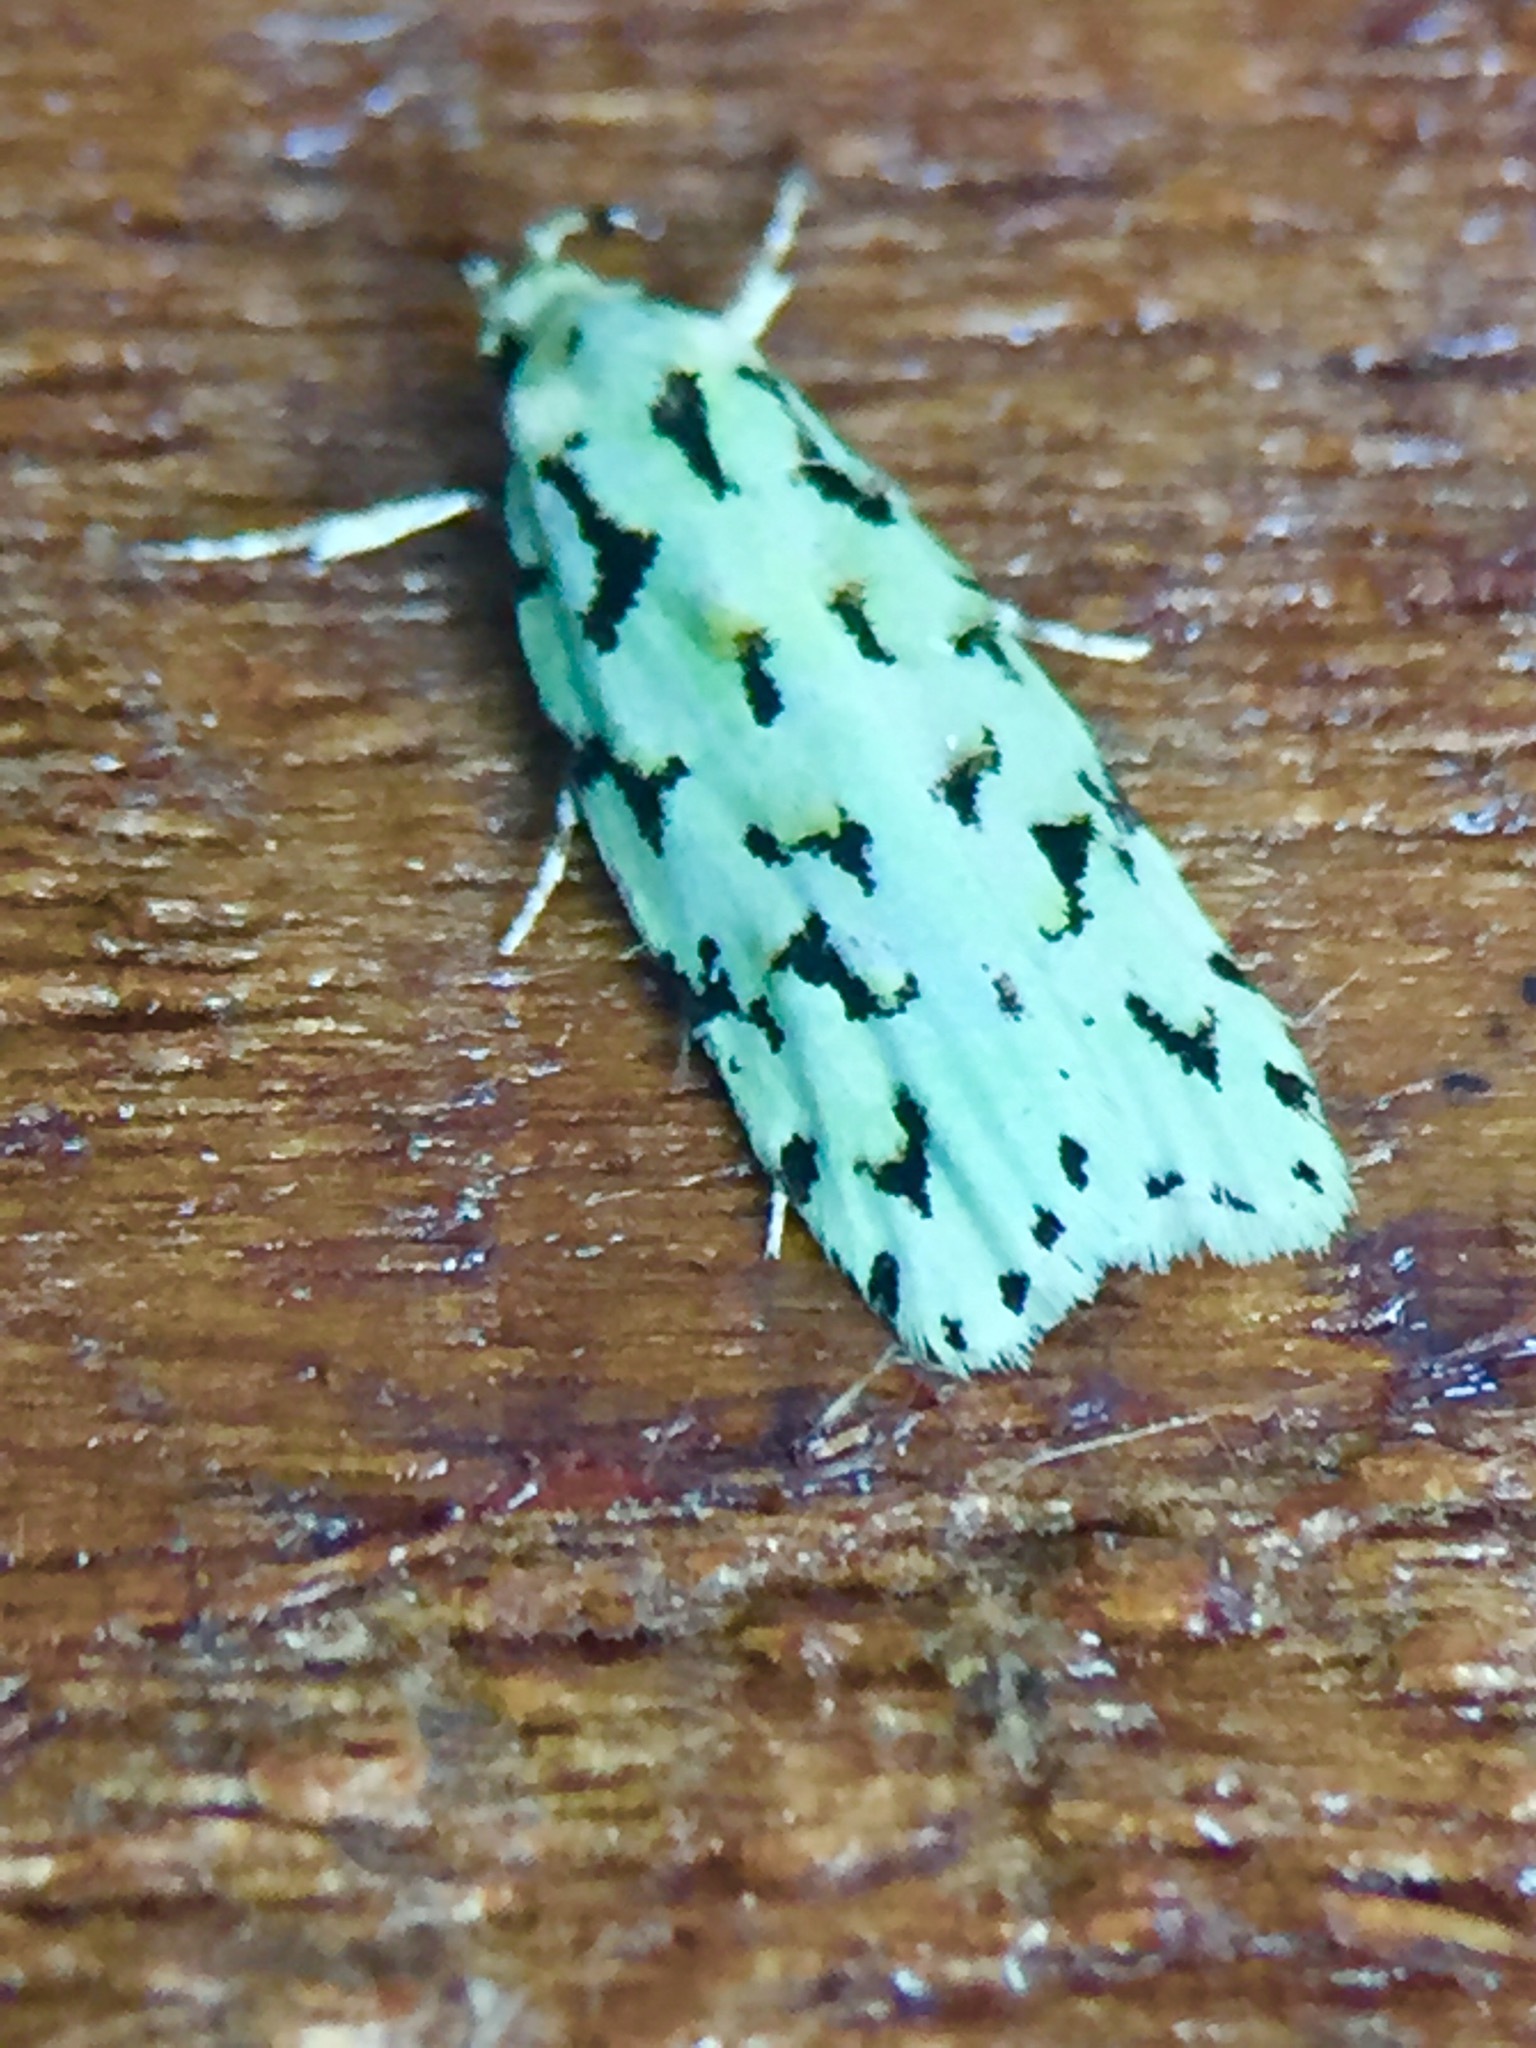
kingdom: Animalia
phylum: Arthropoda
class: Insecta
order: Lepidoptera
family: Oecophoridae
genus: Izatha
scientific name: Izatha peroneanella
